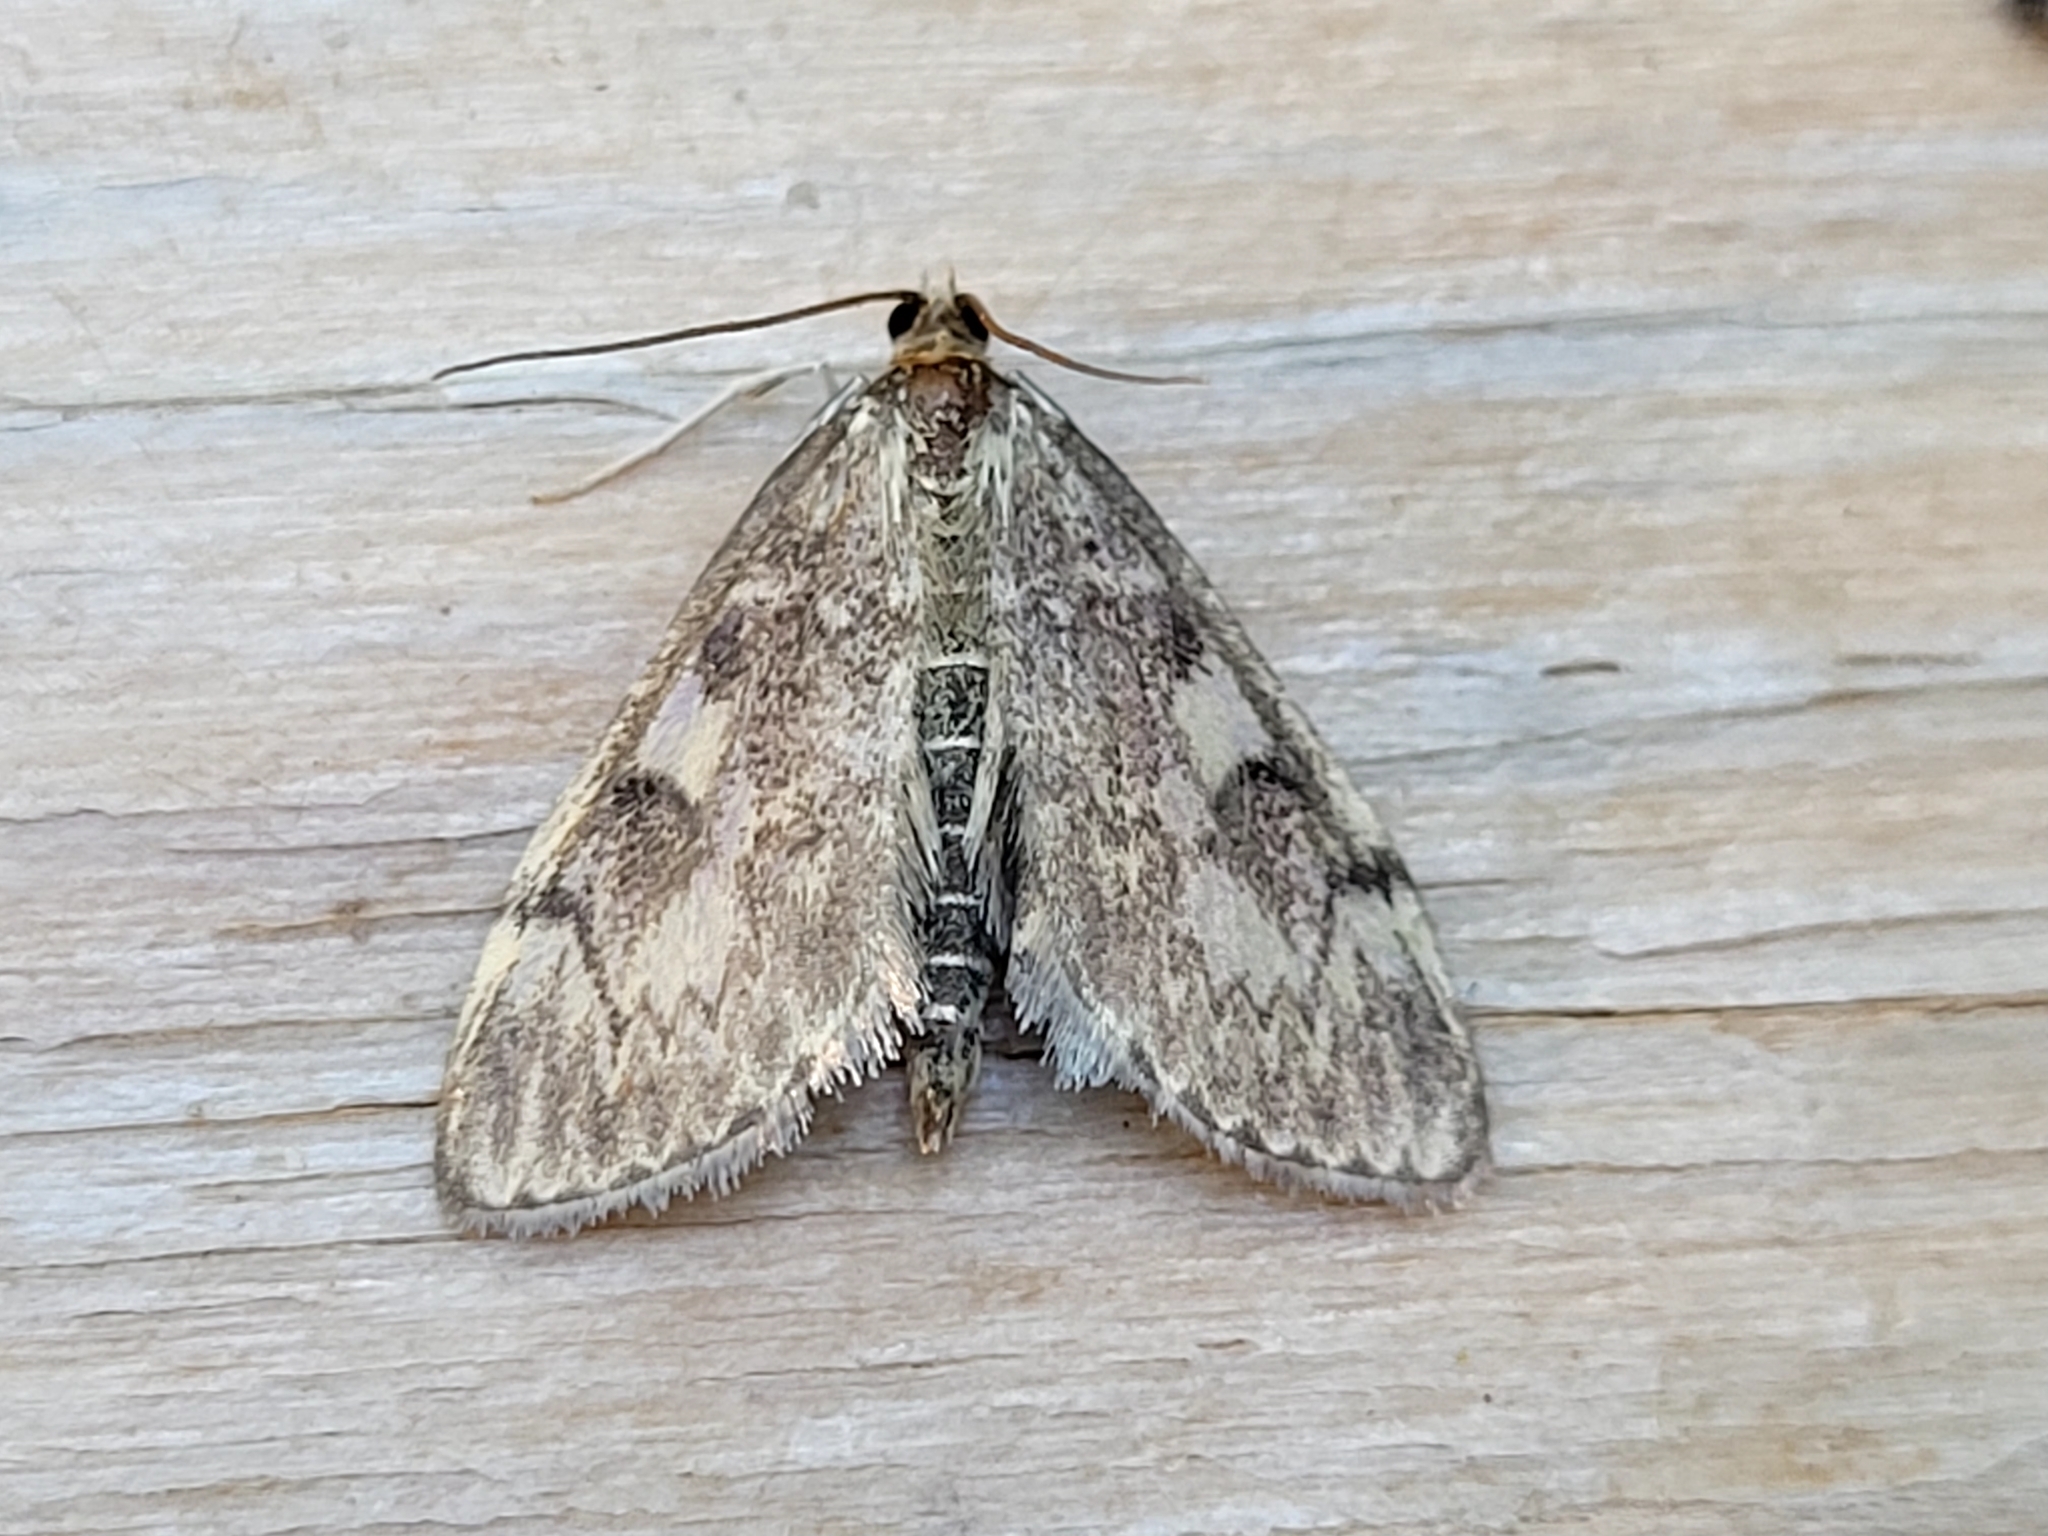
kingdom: Animalia
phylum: Arthropoda
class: Insecta
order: Lepidoptera
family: Crambidae
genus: Anania
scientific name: Anania tertialis
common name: Crowned phylctaenia moth
